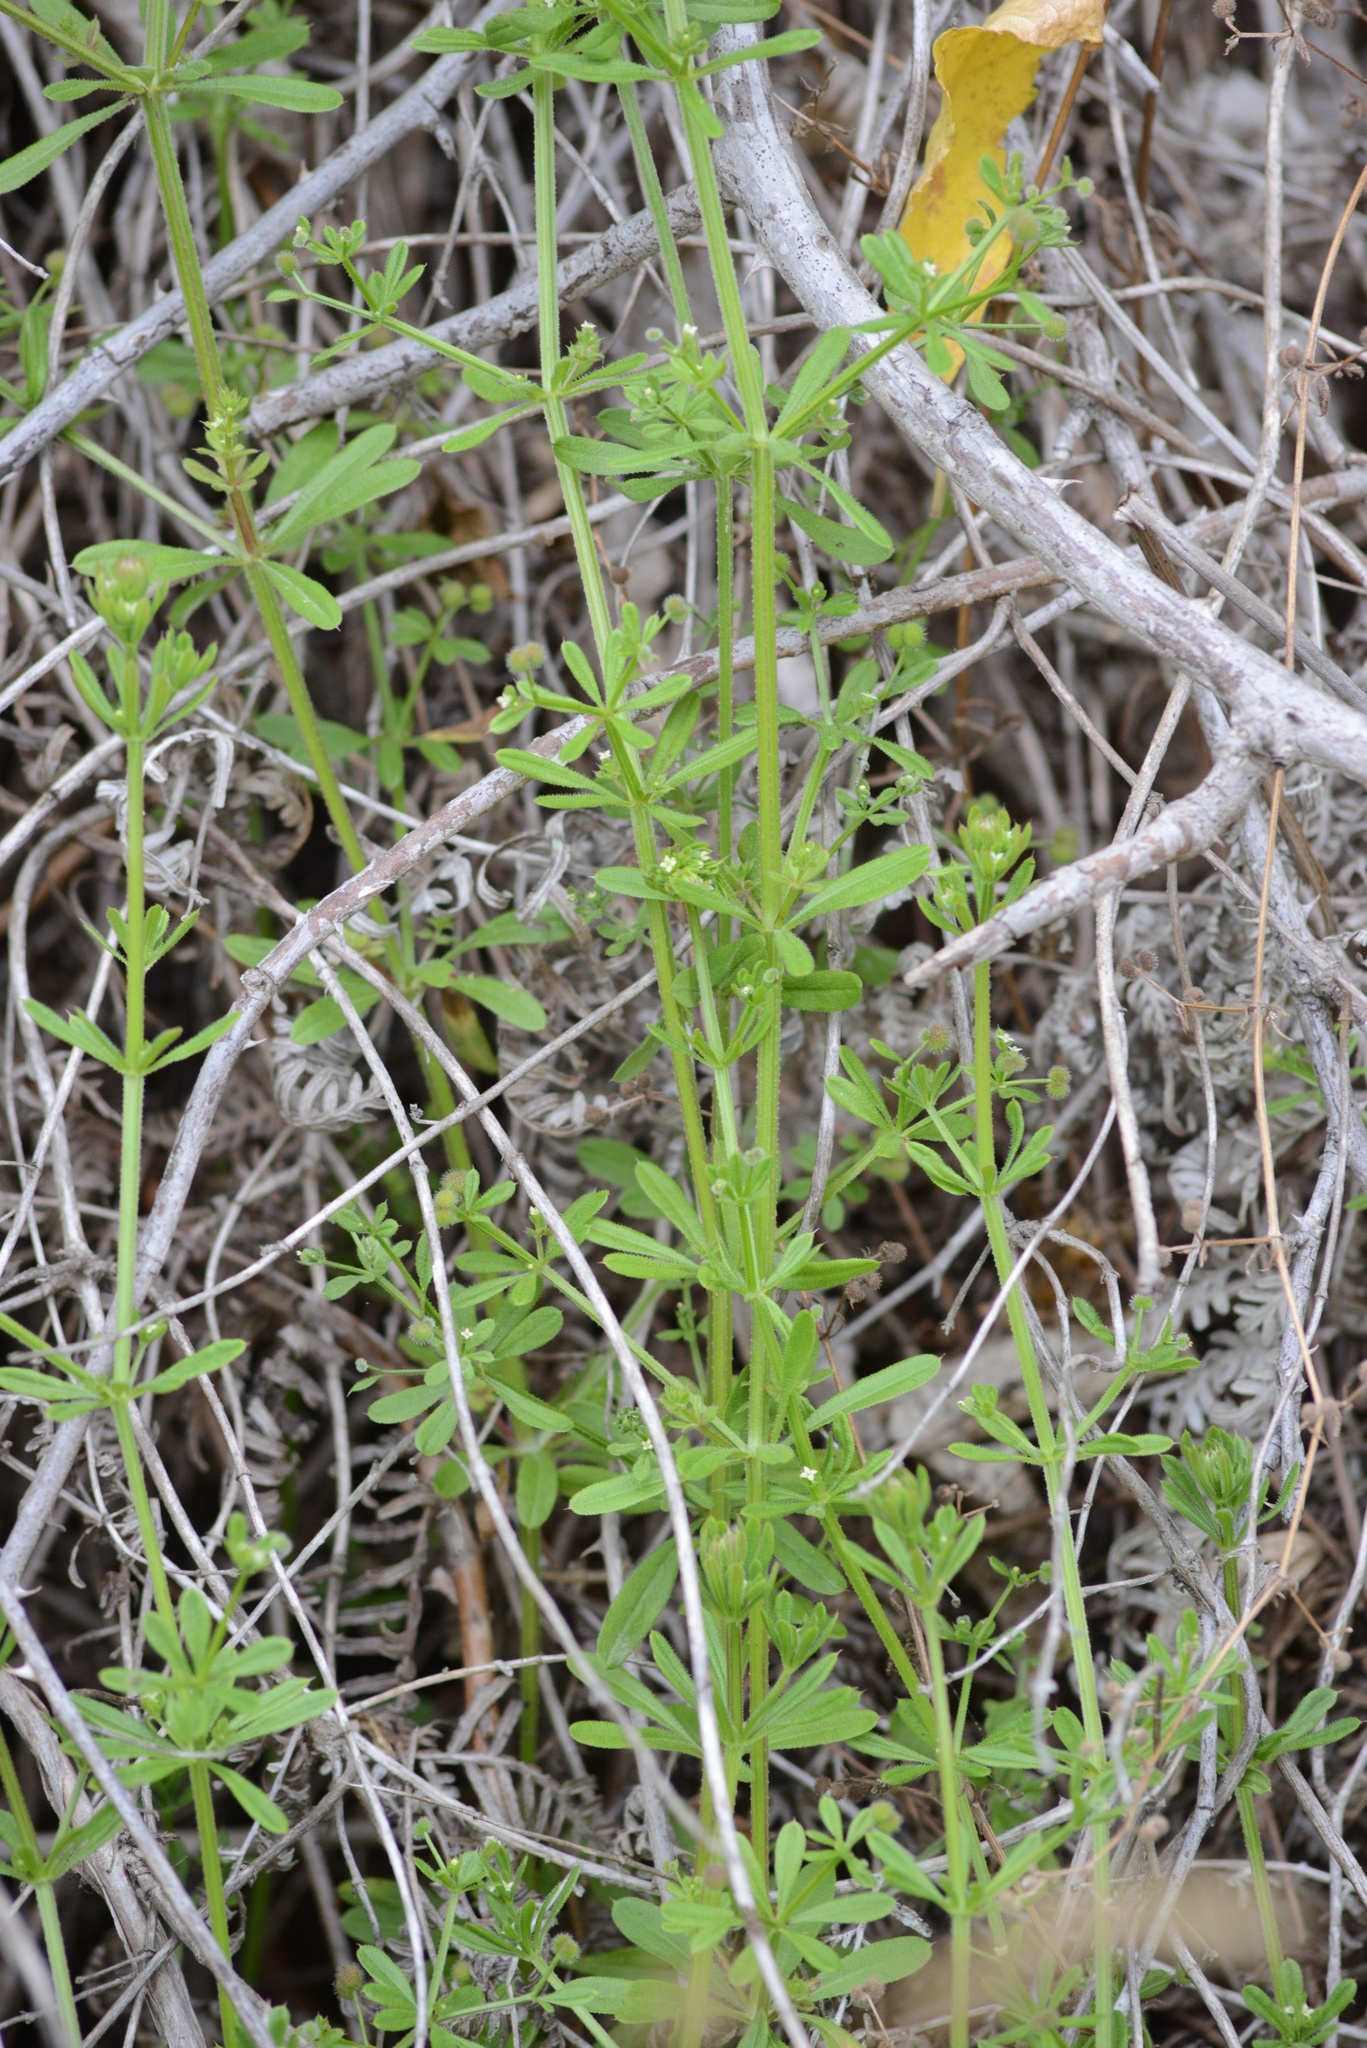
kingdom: Plantae
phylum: Tracheophyta
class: Magnoliopsida
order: Gentianales
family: Rubiaceae
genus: Galium
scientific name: Galium aparine
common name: Cleavers
